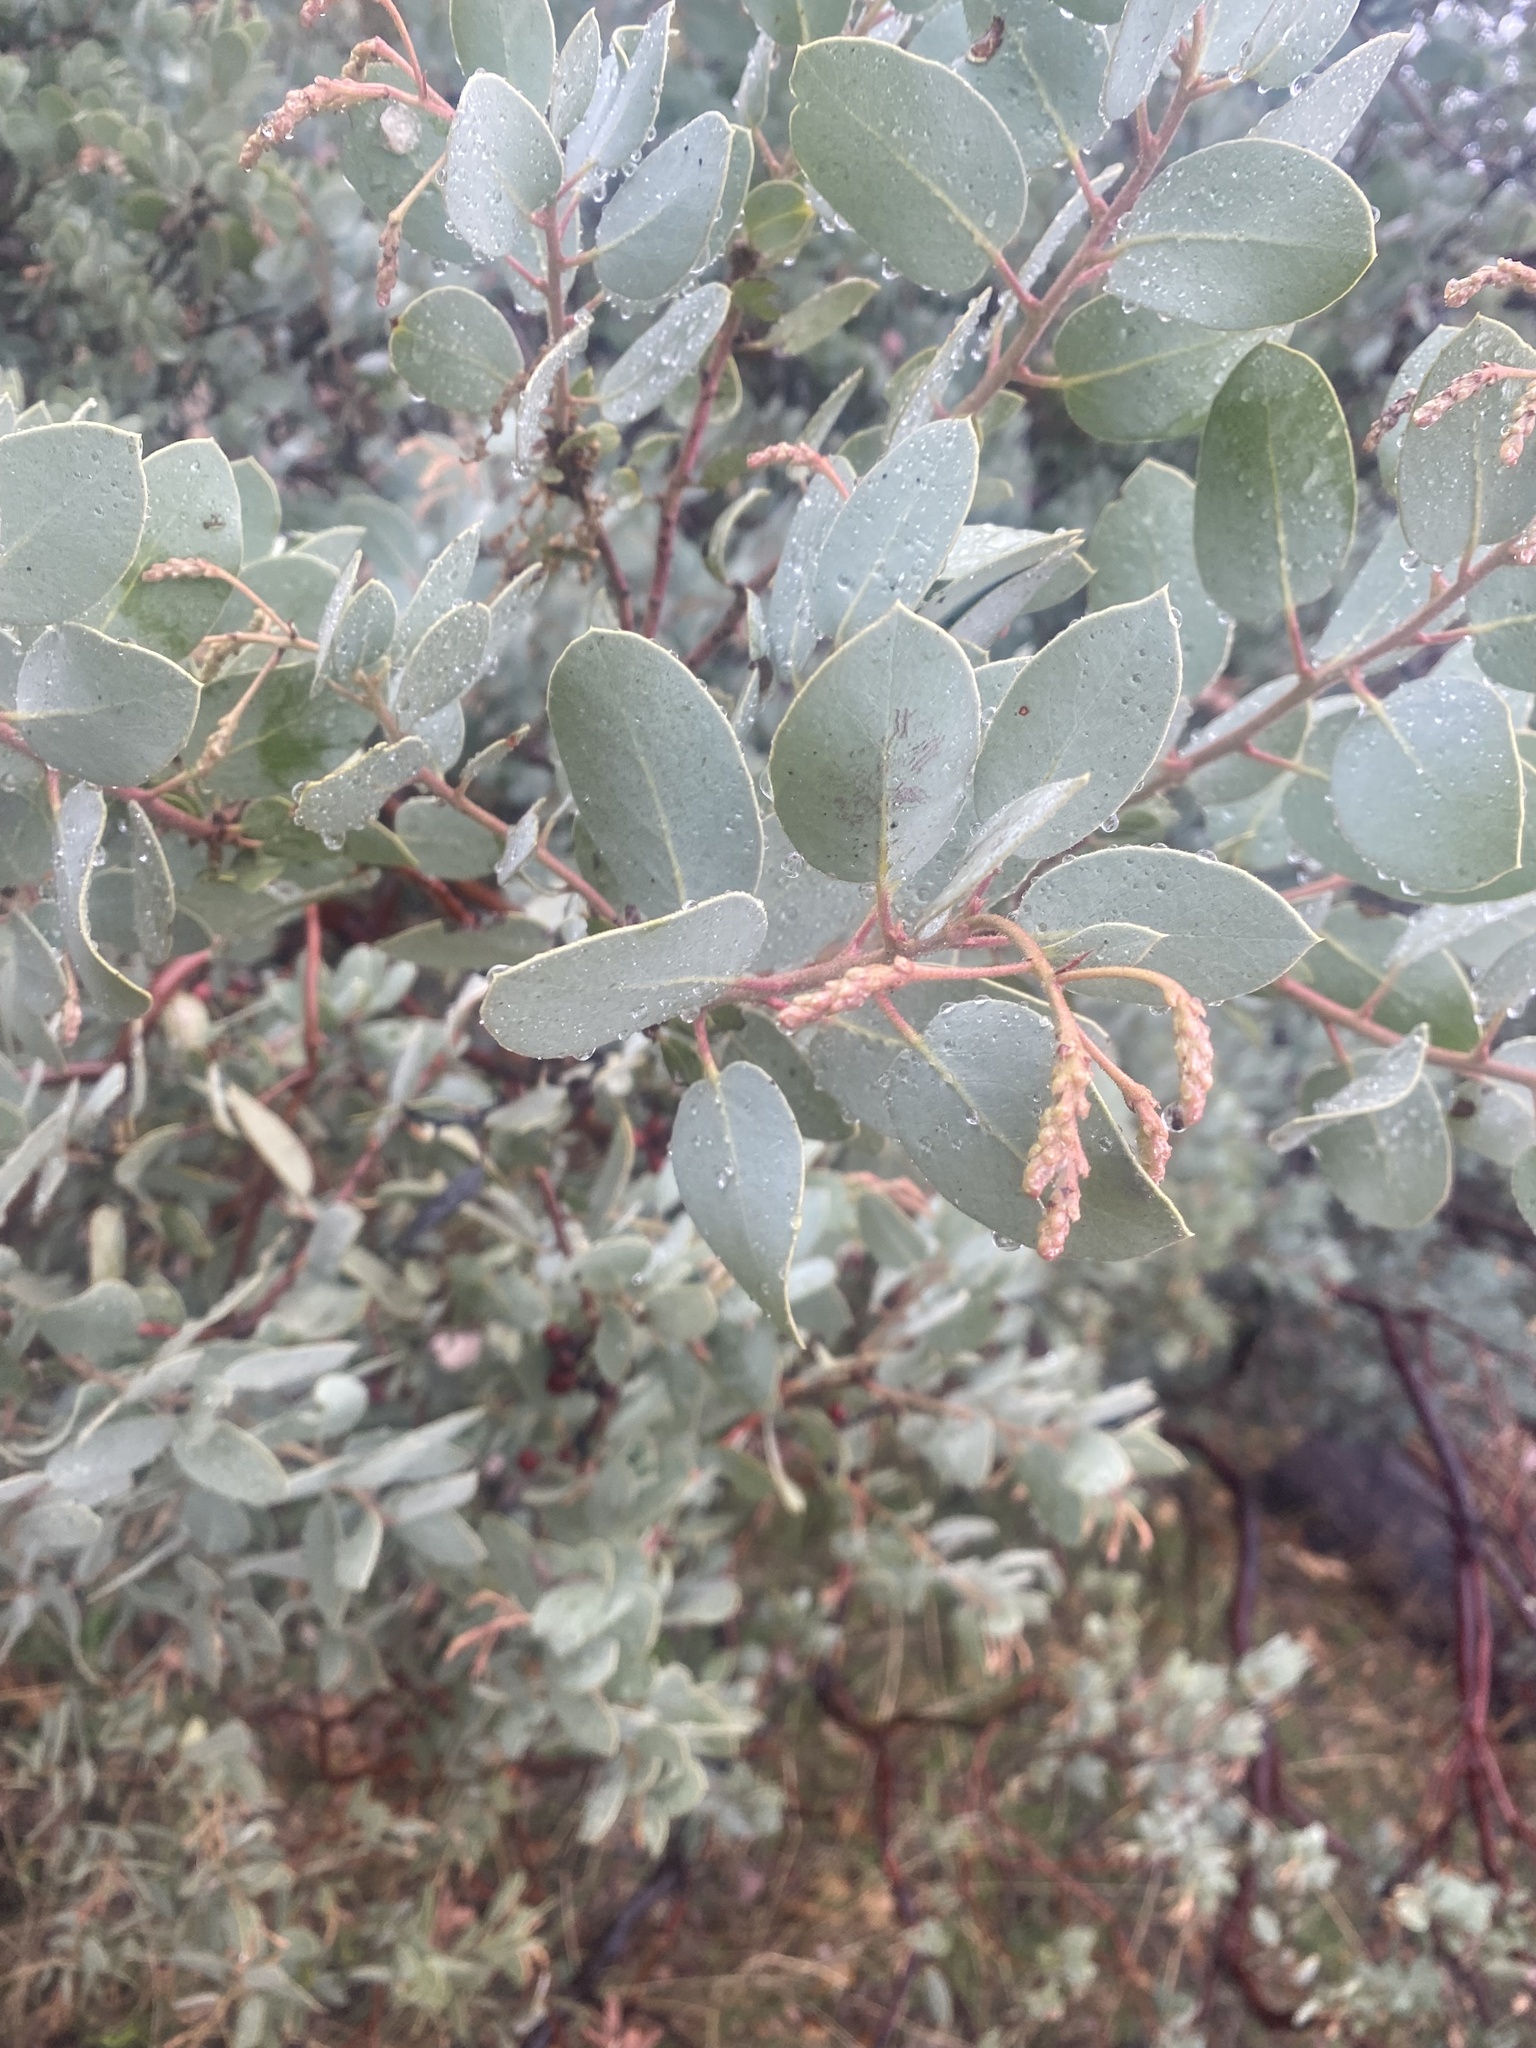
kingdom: Plantae
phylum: Tracheophyta
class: Magnoliopsida
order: Ericales
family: Ericaceae
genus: Arctostaphylos
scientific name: Arctostaphylos viscida
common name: White-leaf manzanita
